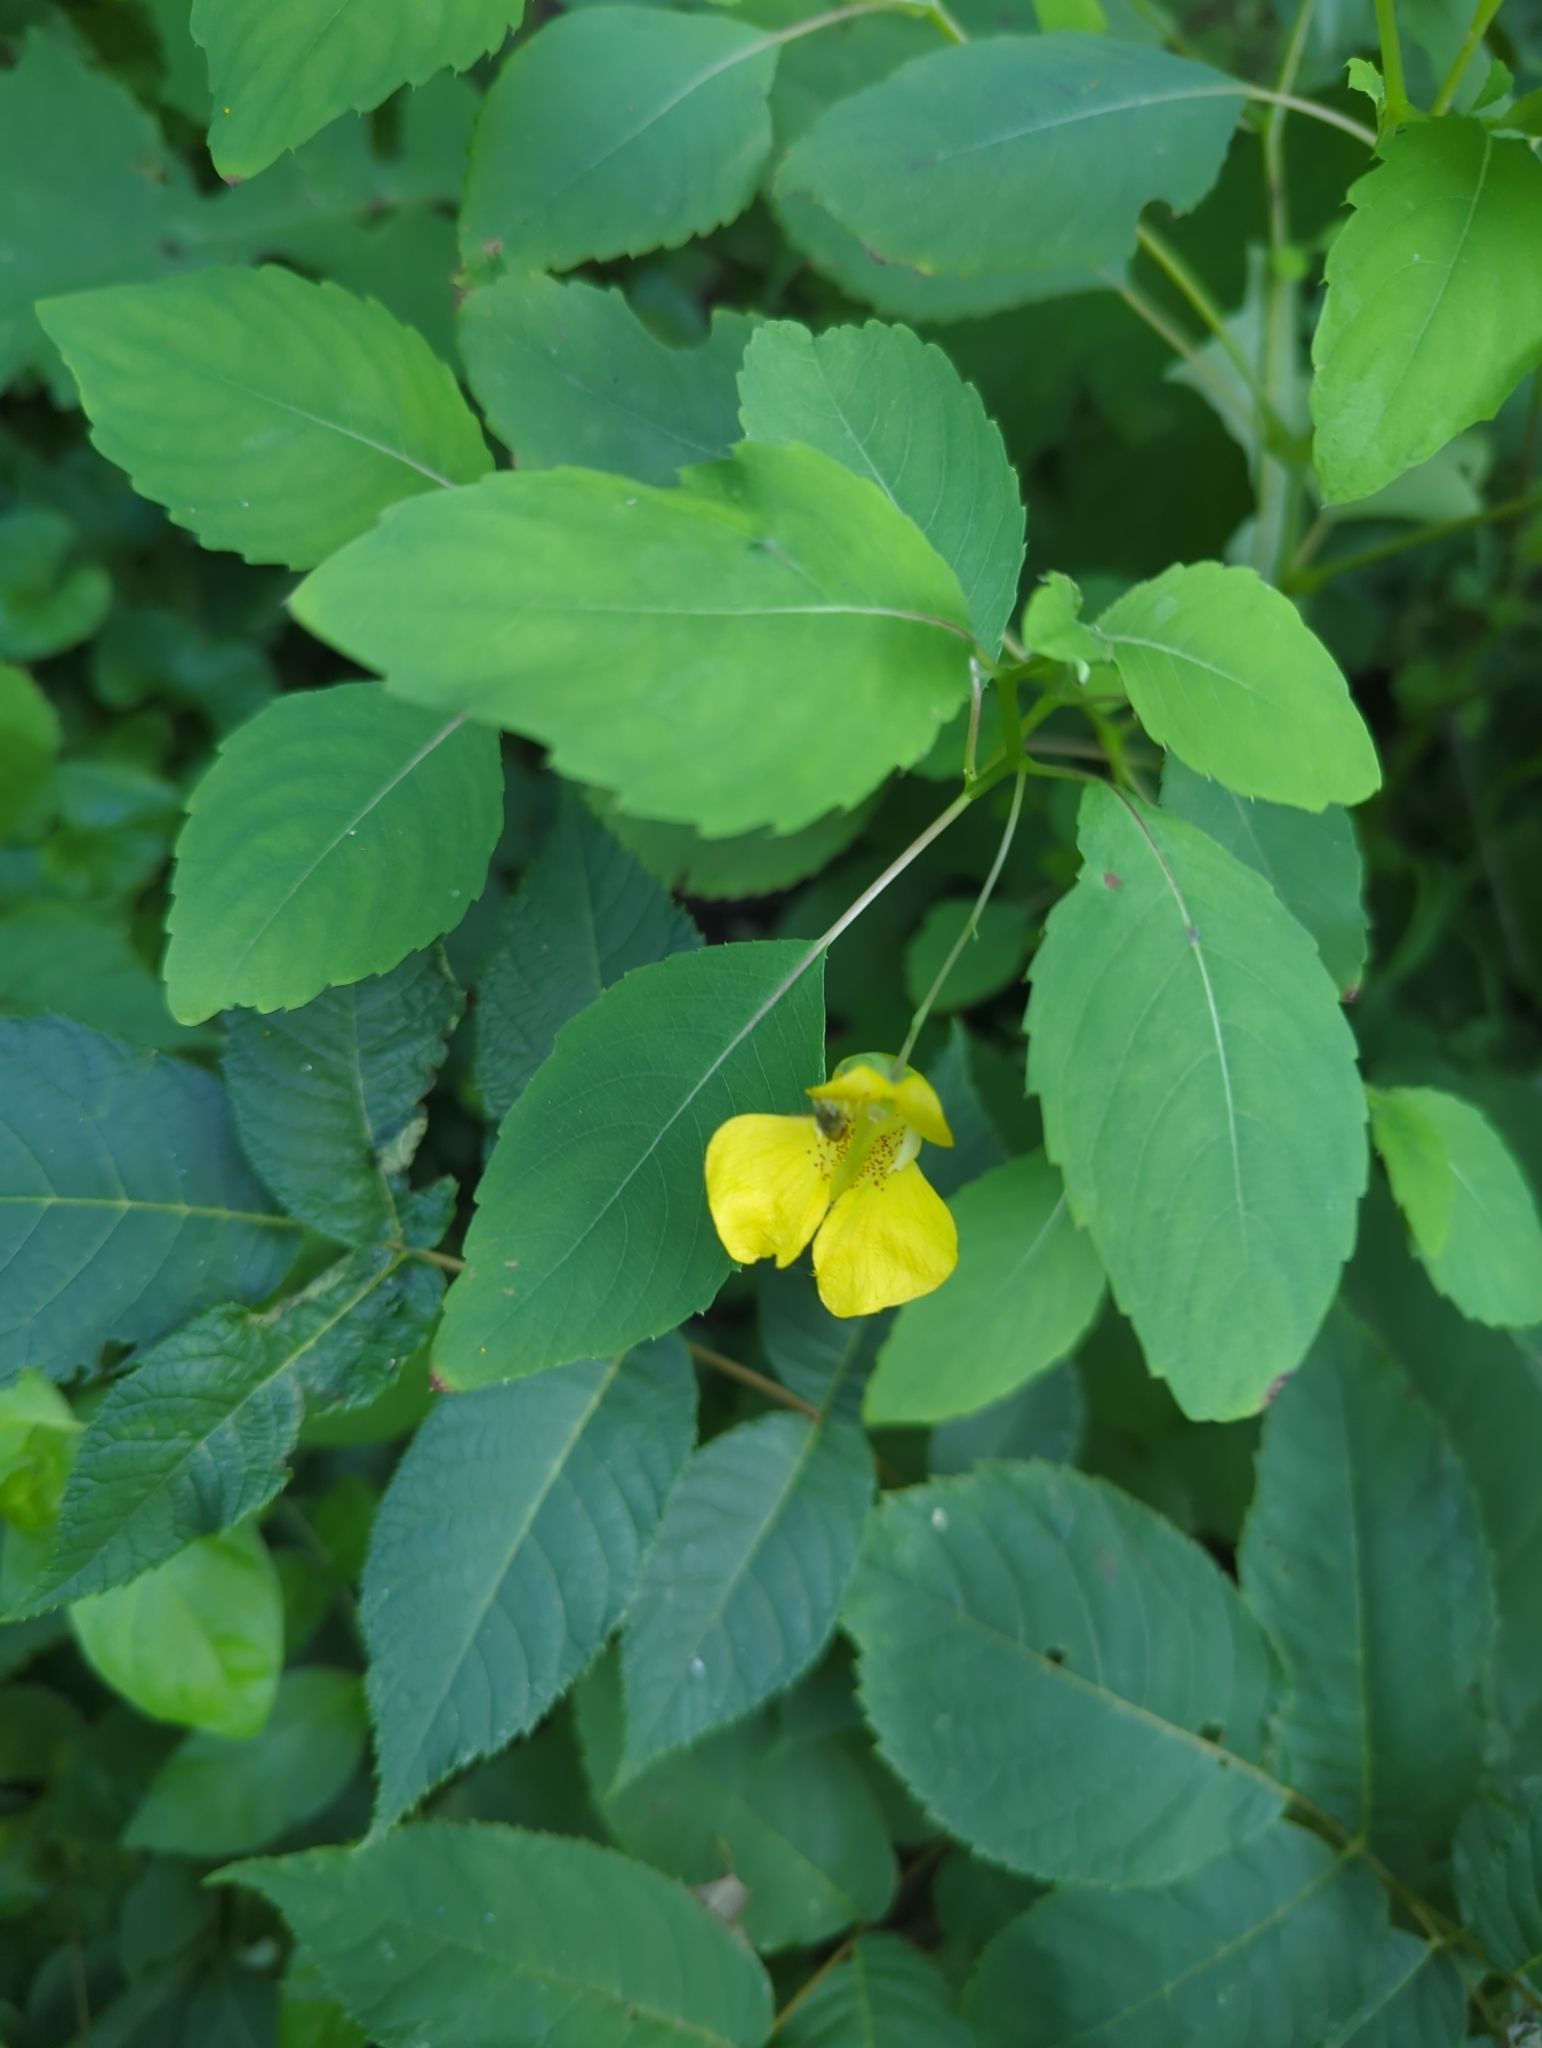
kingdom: Plantae
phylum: Tracheophyta
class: Magnoliopsida
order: Ericales
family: Balsaminaceae
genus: Impatiens
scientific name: Impatiens pallida
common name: Pale snapweed
